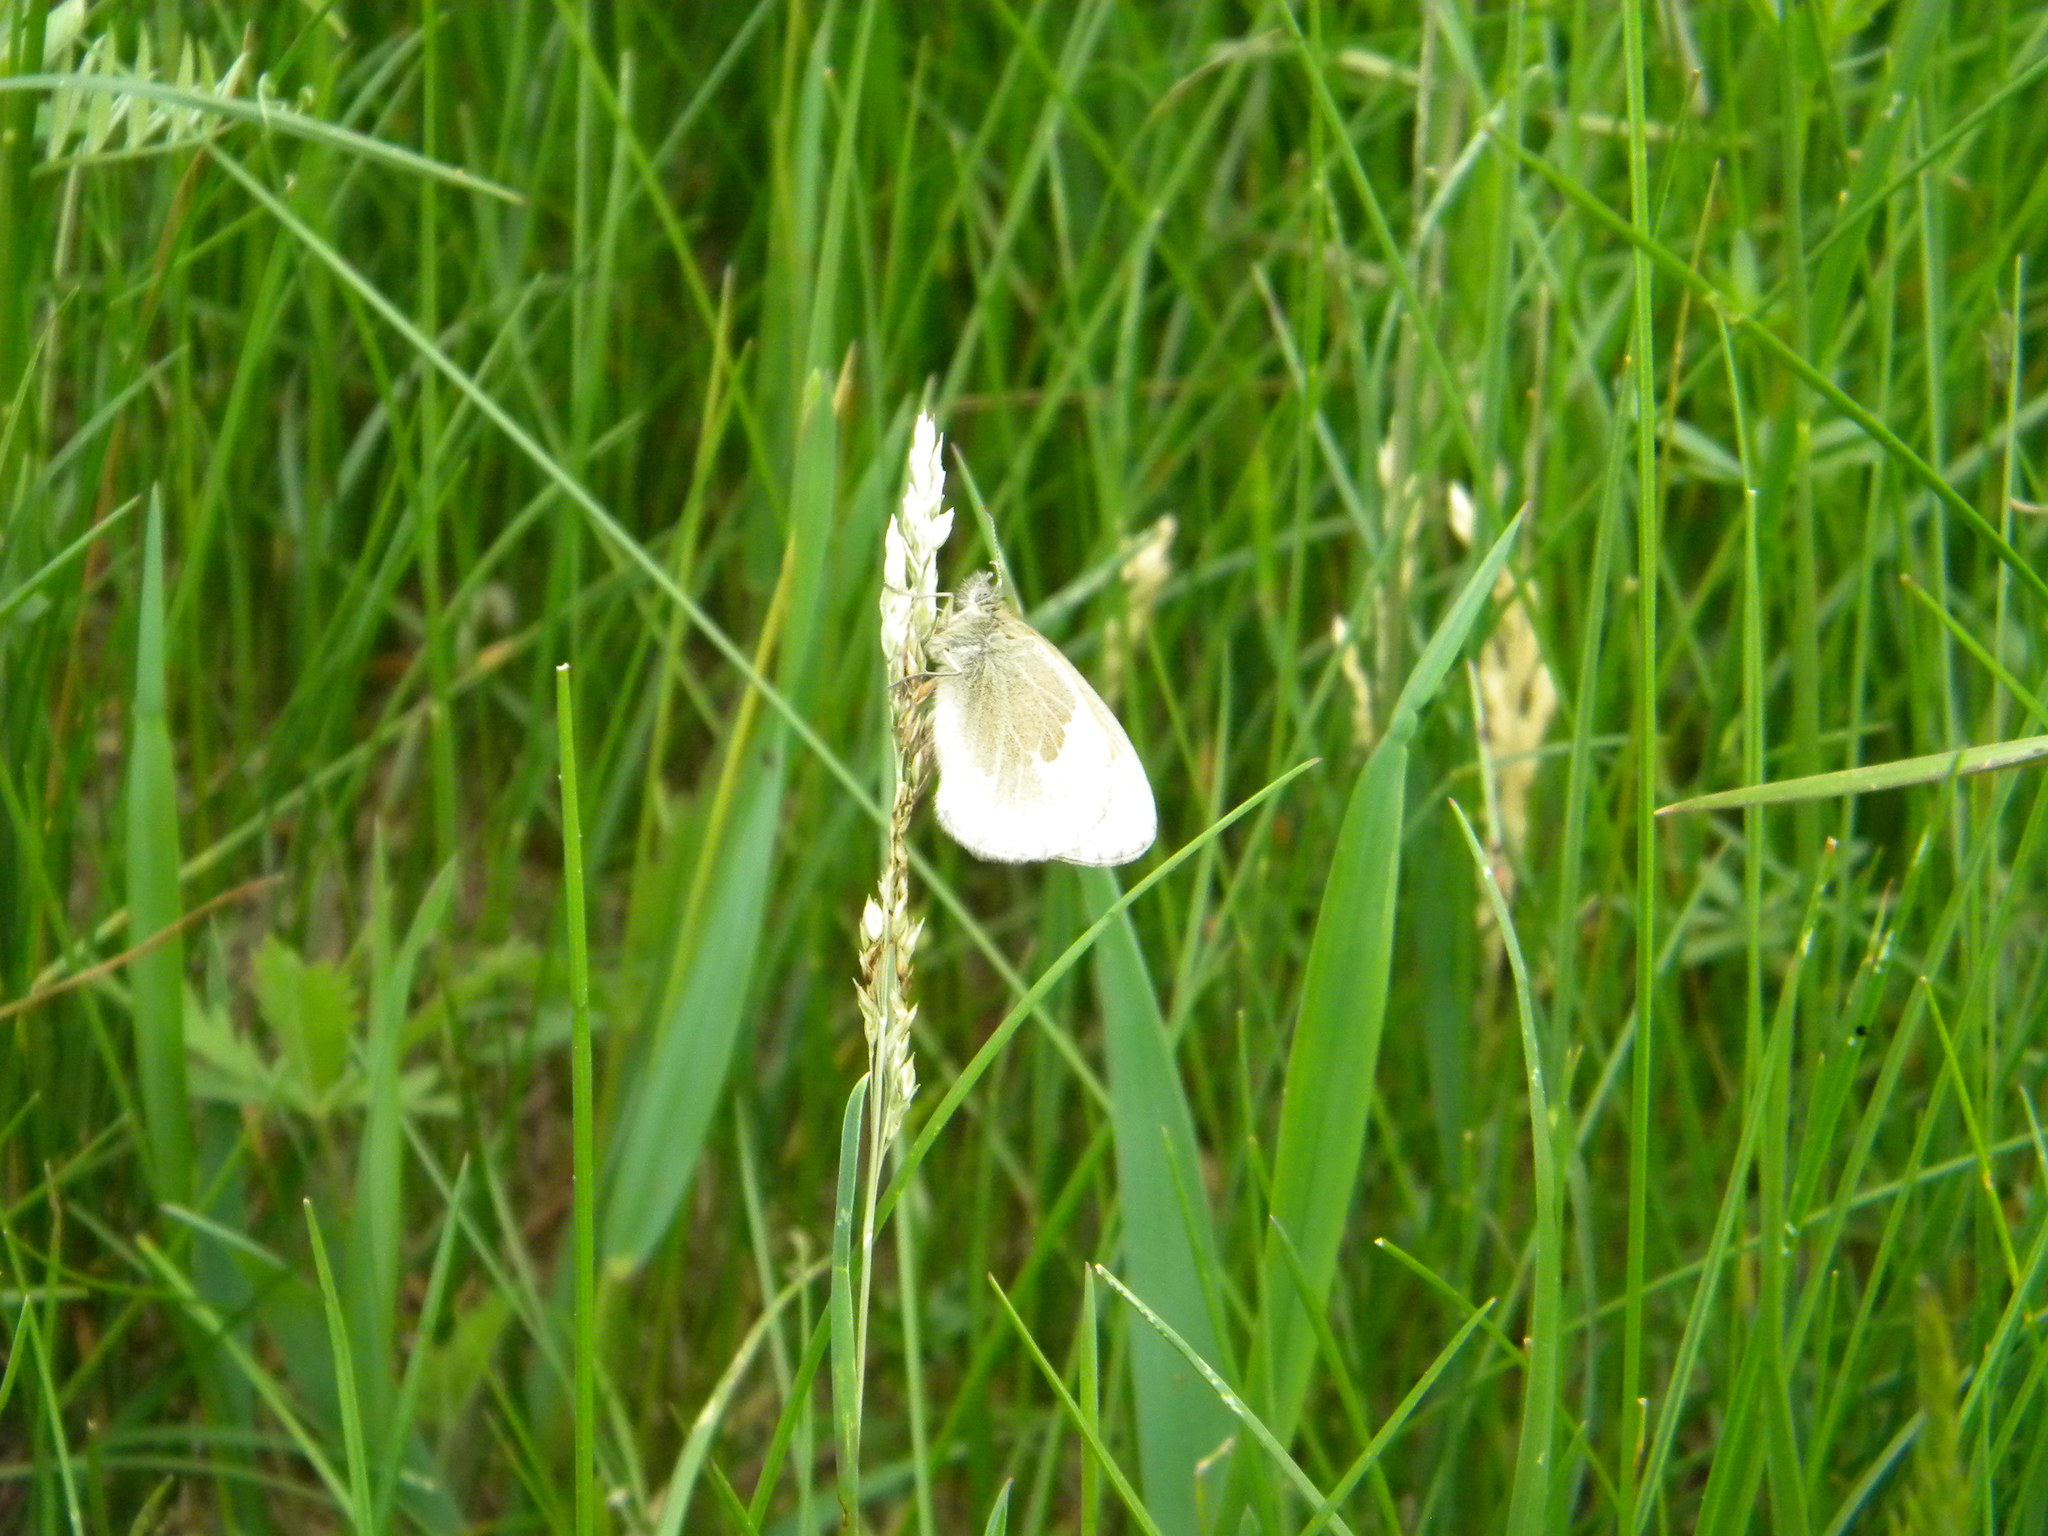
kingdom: Animalia
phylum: Arthropoda
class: Insecta
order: Lepidoptera
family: Nymphalidae
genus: Coenonympha
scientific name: Coenonympha california
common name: Common ringlet
